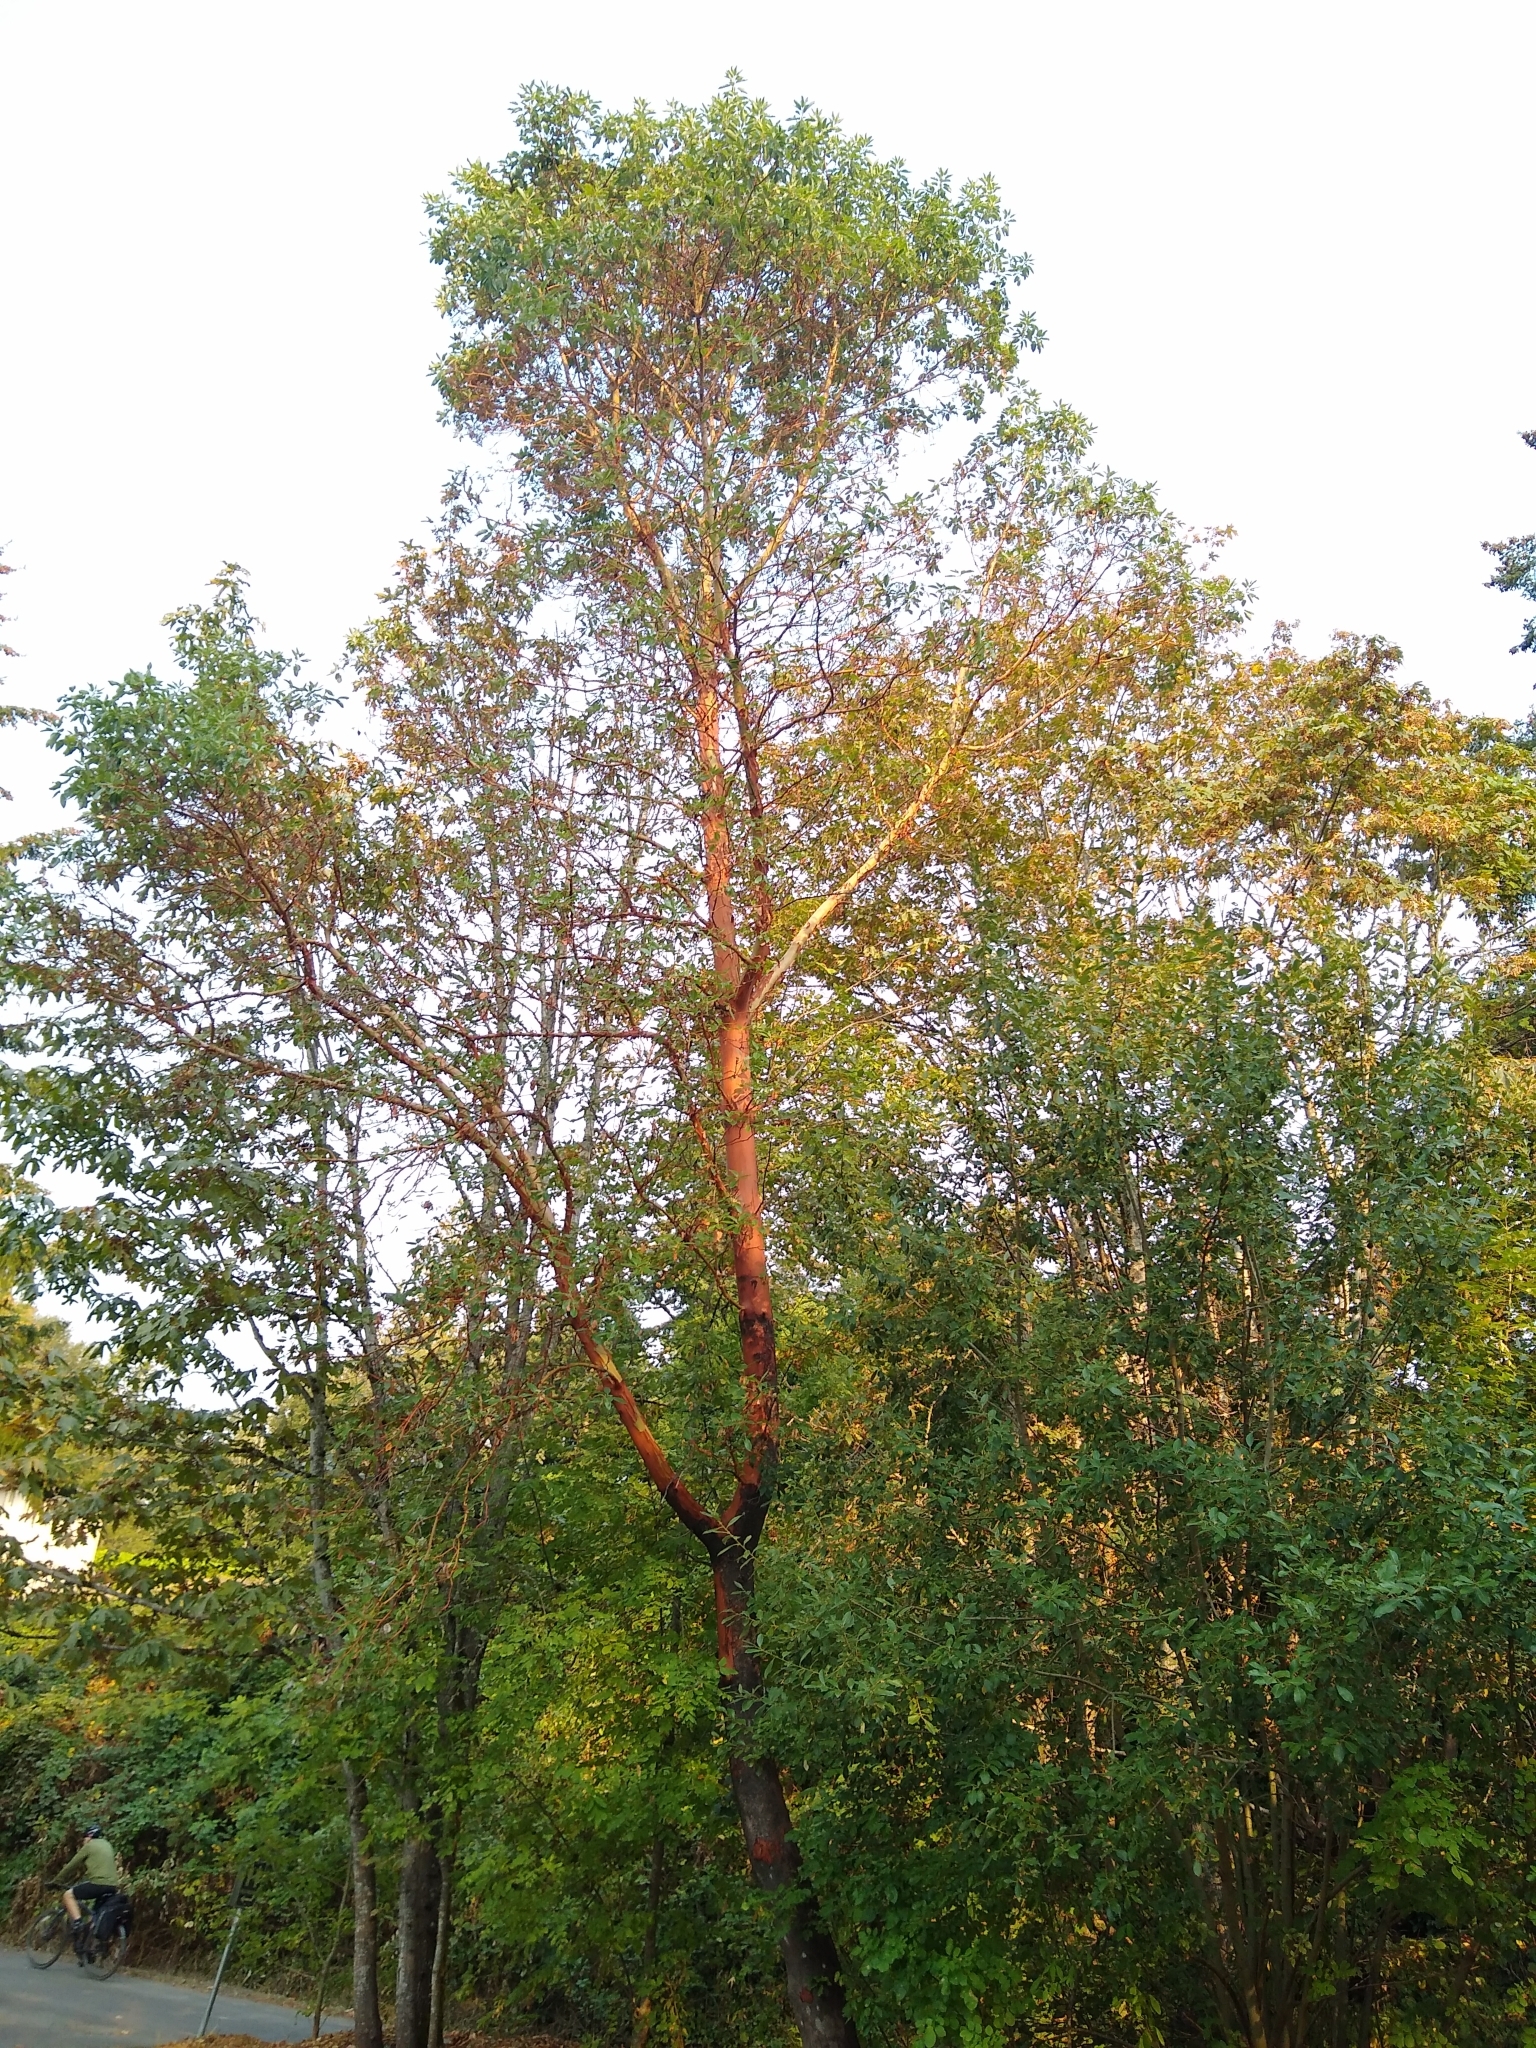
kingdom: Plantae
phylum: Tracheophyta
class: Magnoliopsida
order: Ericales
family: Ericaceae
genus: Arbutus
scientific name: Arbutus menziesii
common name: Pacific madrone
